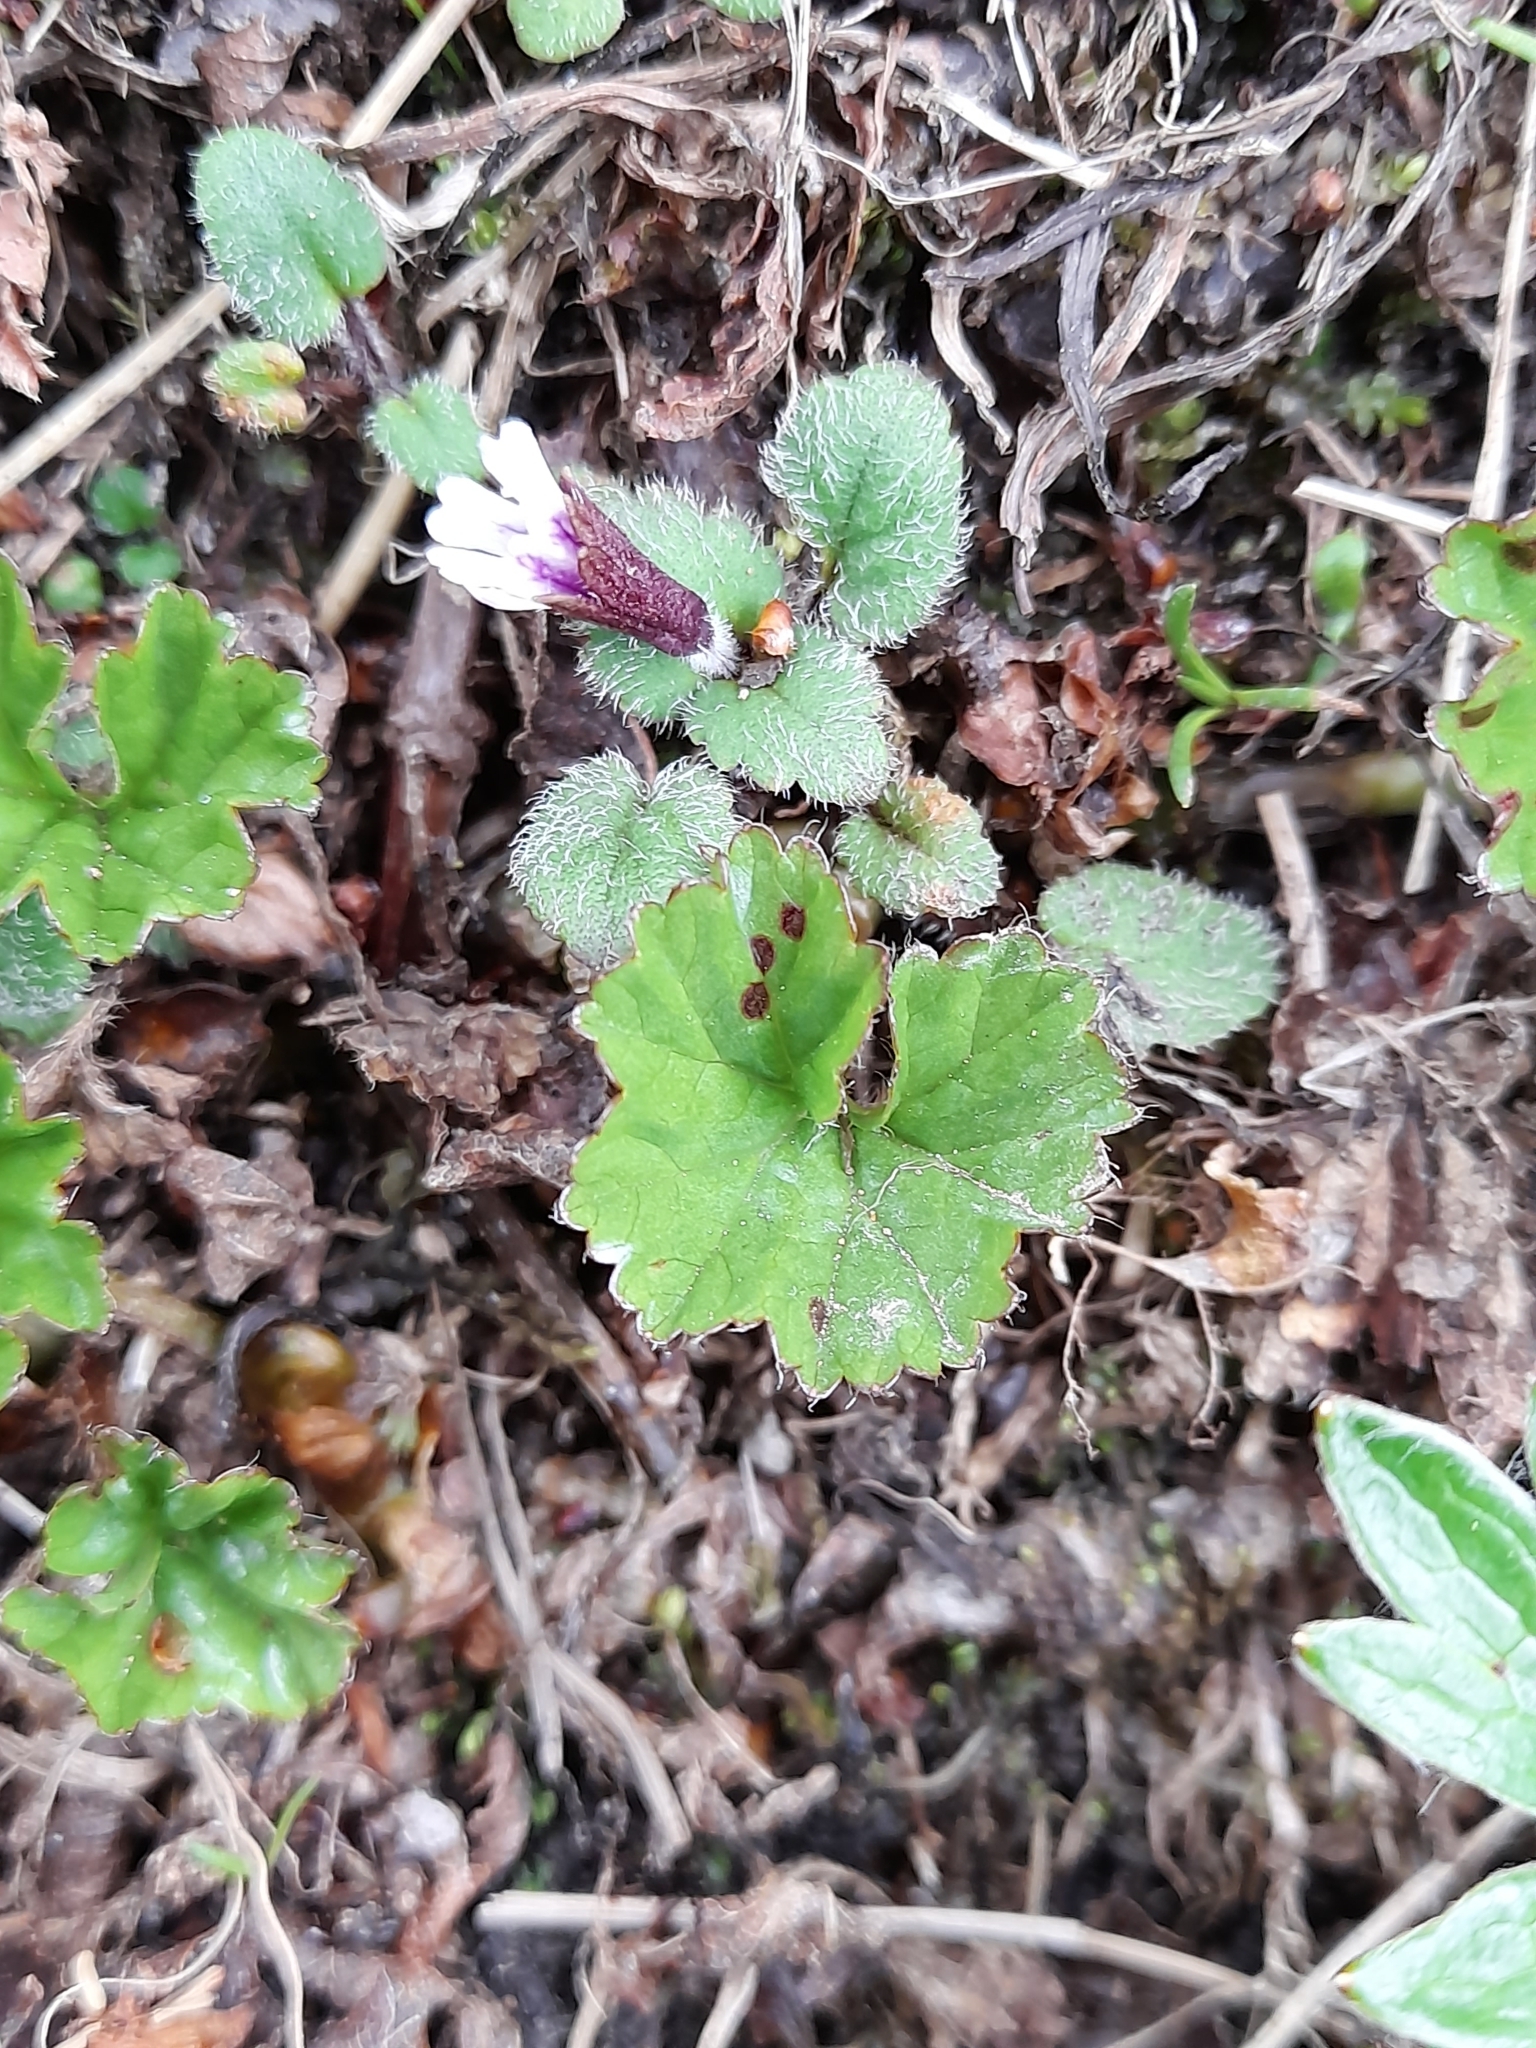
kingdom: Plantae
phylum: Tracheophyta
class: Magnoliopsida
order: Lamiales
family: Plantaginaceae
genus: Ourisia
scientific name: Ourisia breviflora
